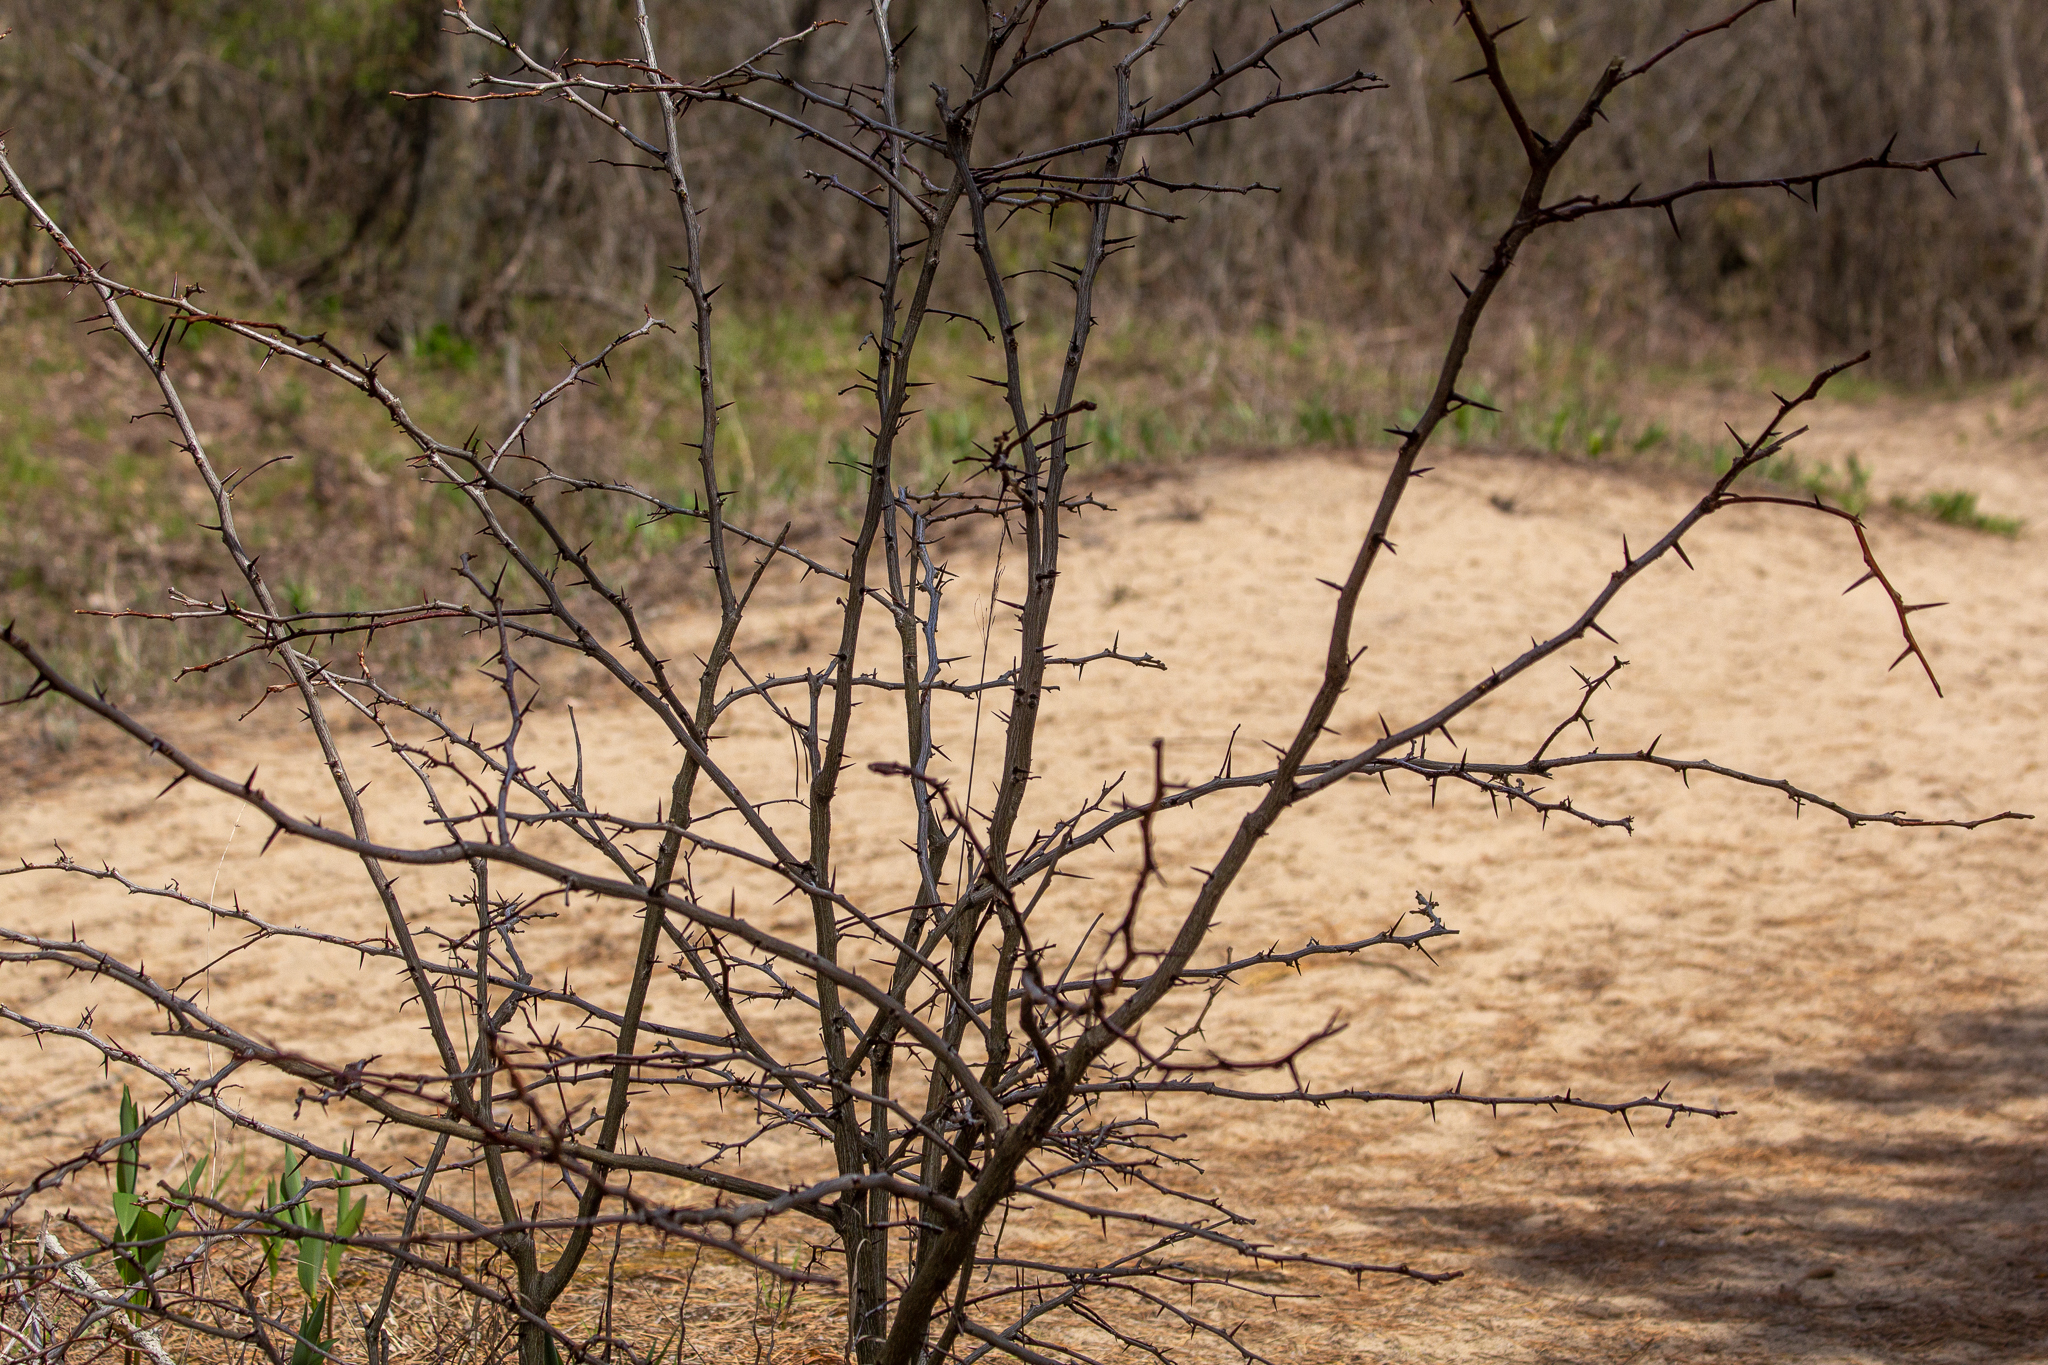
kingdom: Plantae
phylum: Tracheophyta
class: Magnoliopsida
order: Fabales
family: Fabaceae
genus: Gleditsia
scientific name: Gleditsia triacanthos
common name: Common honeylocust
